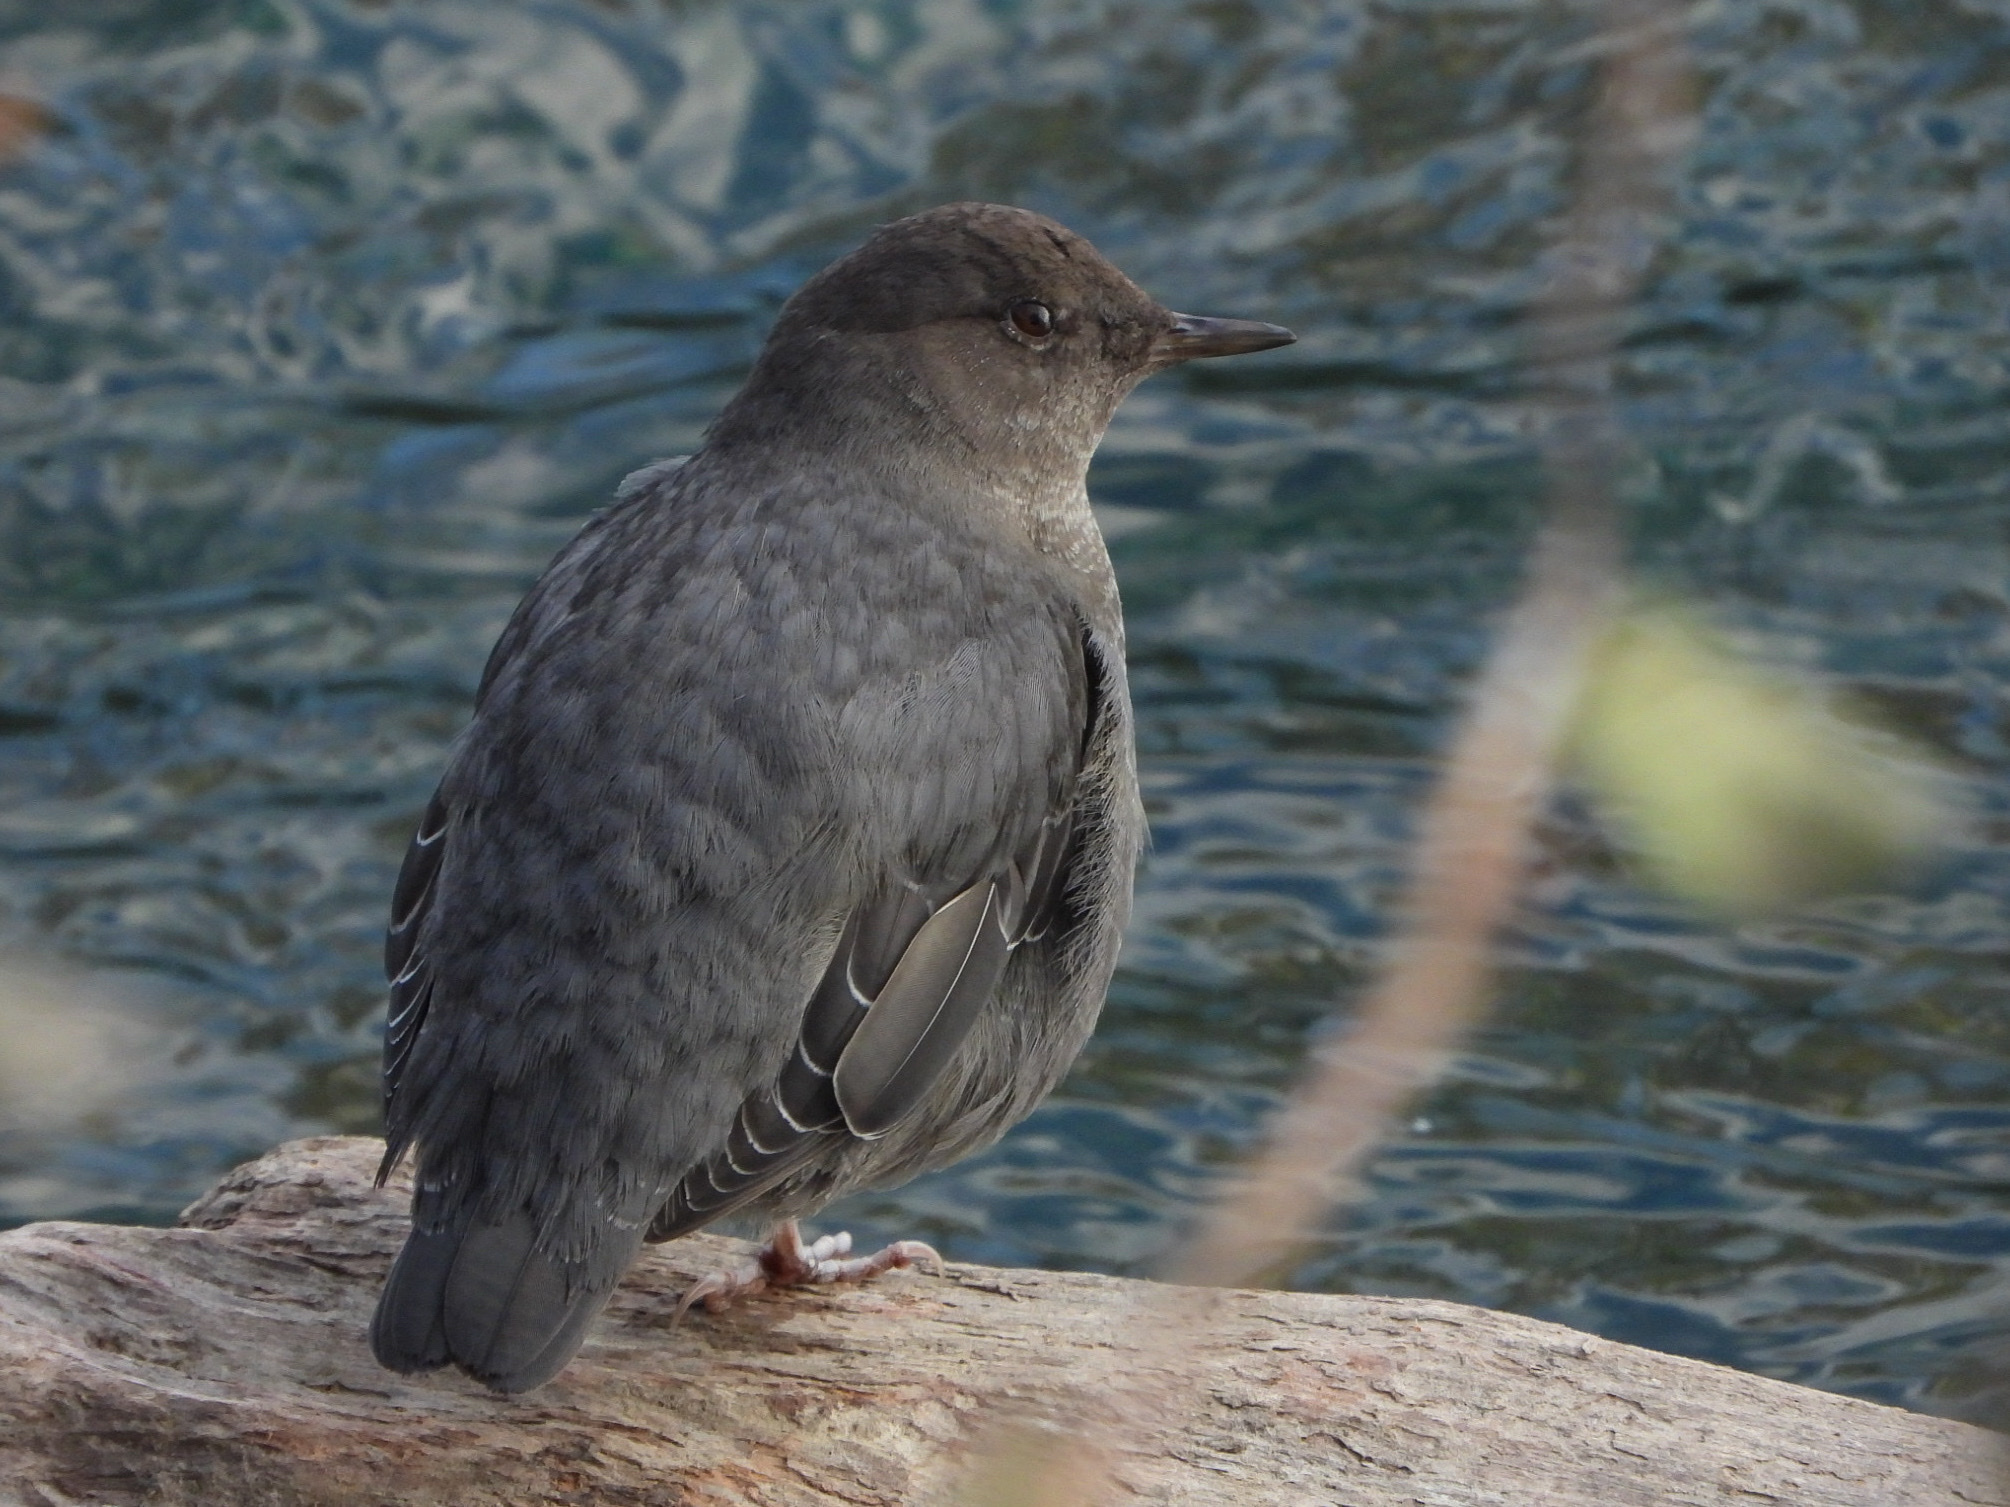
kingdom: Animalia
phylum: Chordata
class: Aves
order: Passeriformes
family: Cinclidae
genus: Cinclus
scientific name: Cinclus mexicanus
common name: American dipper
